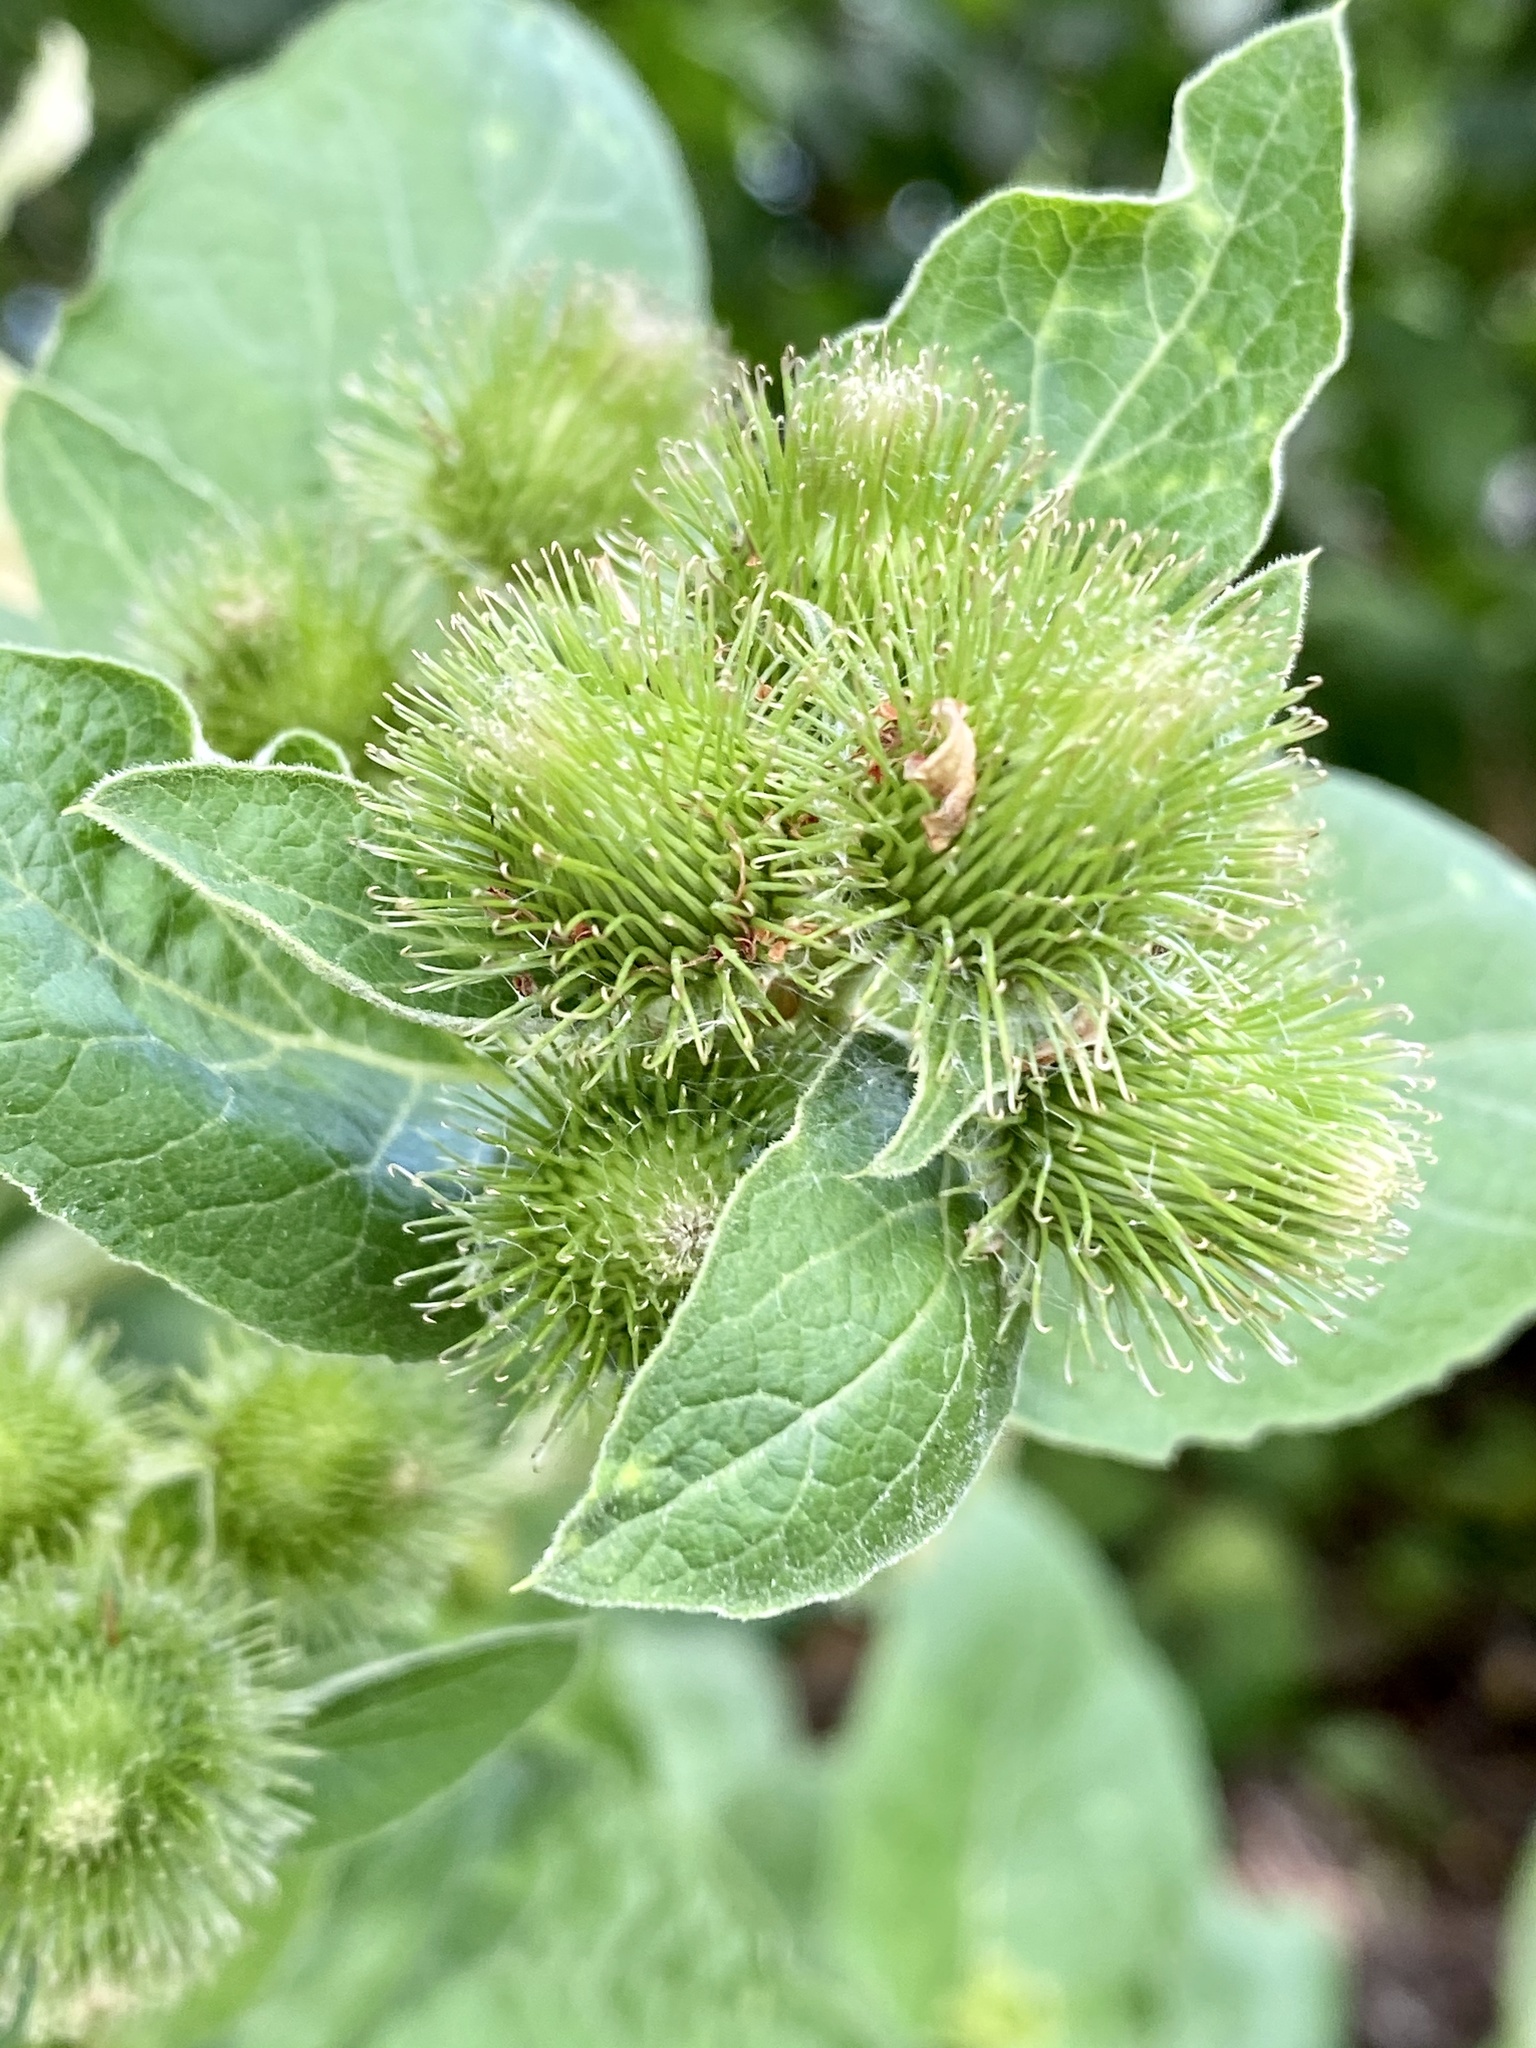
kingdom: Plantae
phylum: Tracheophyta
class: Magnoliopsida
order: Asterales
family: Asteraceae
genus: Arctium
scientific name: Arctium minus
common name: Lesser burdock
